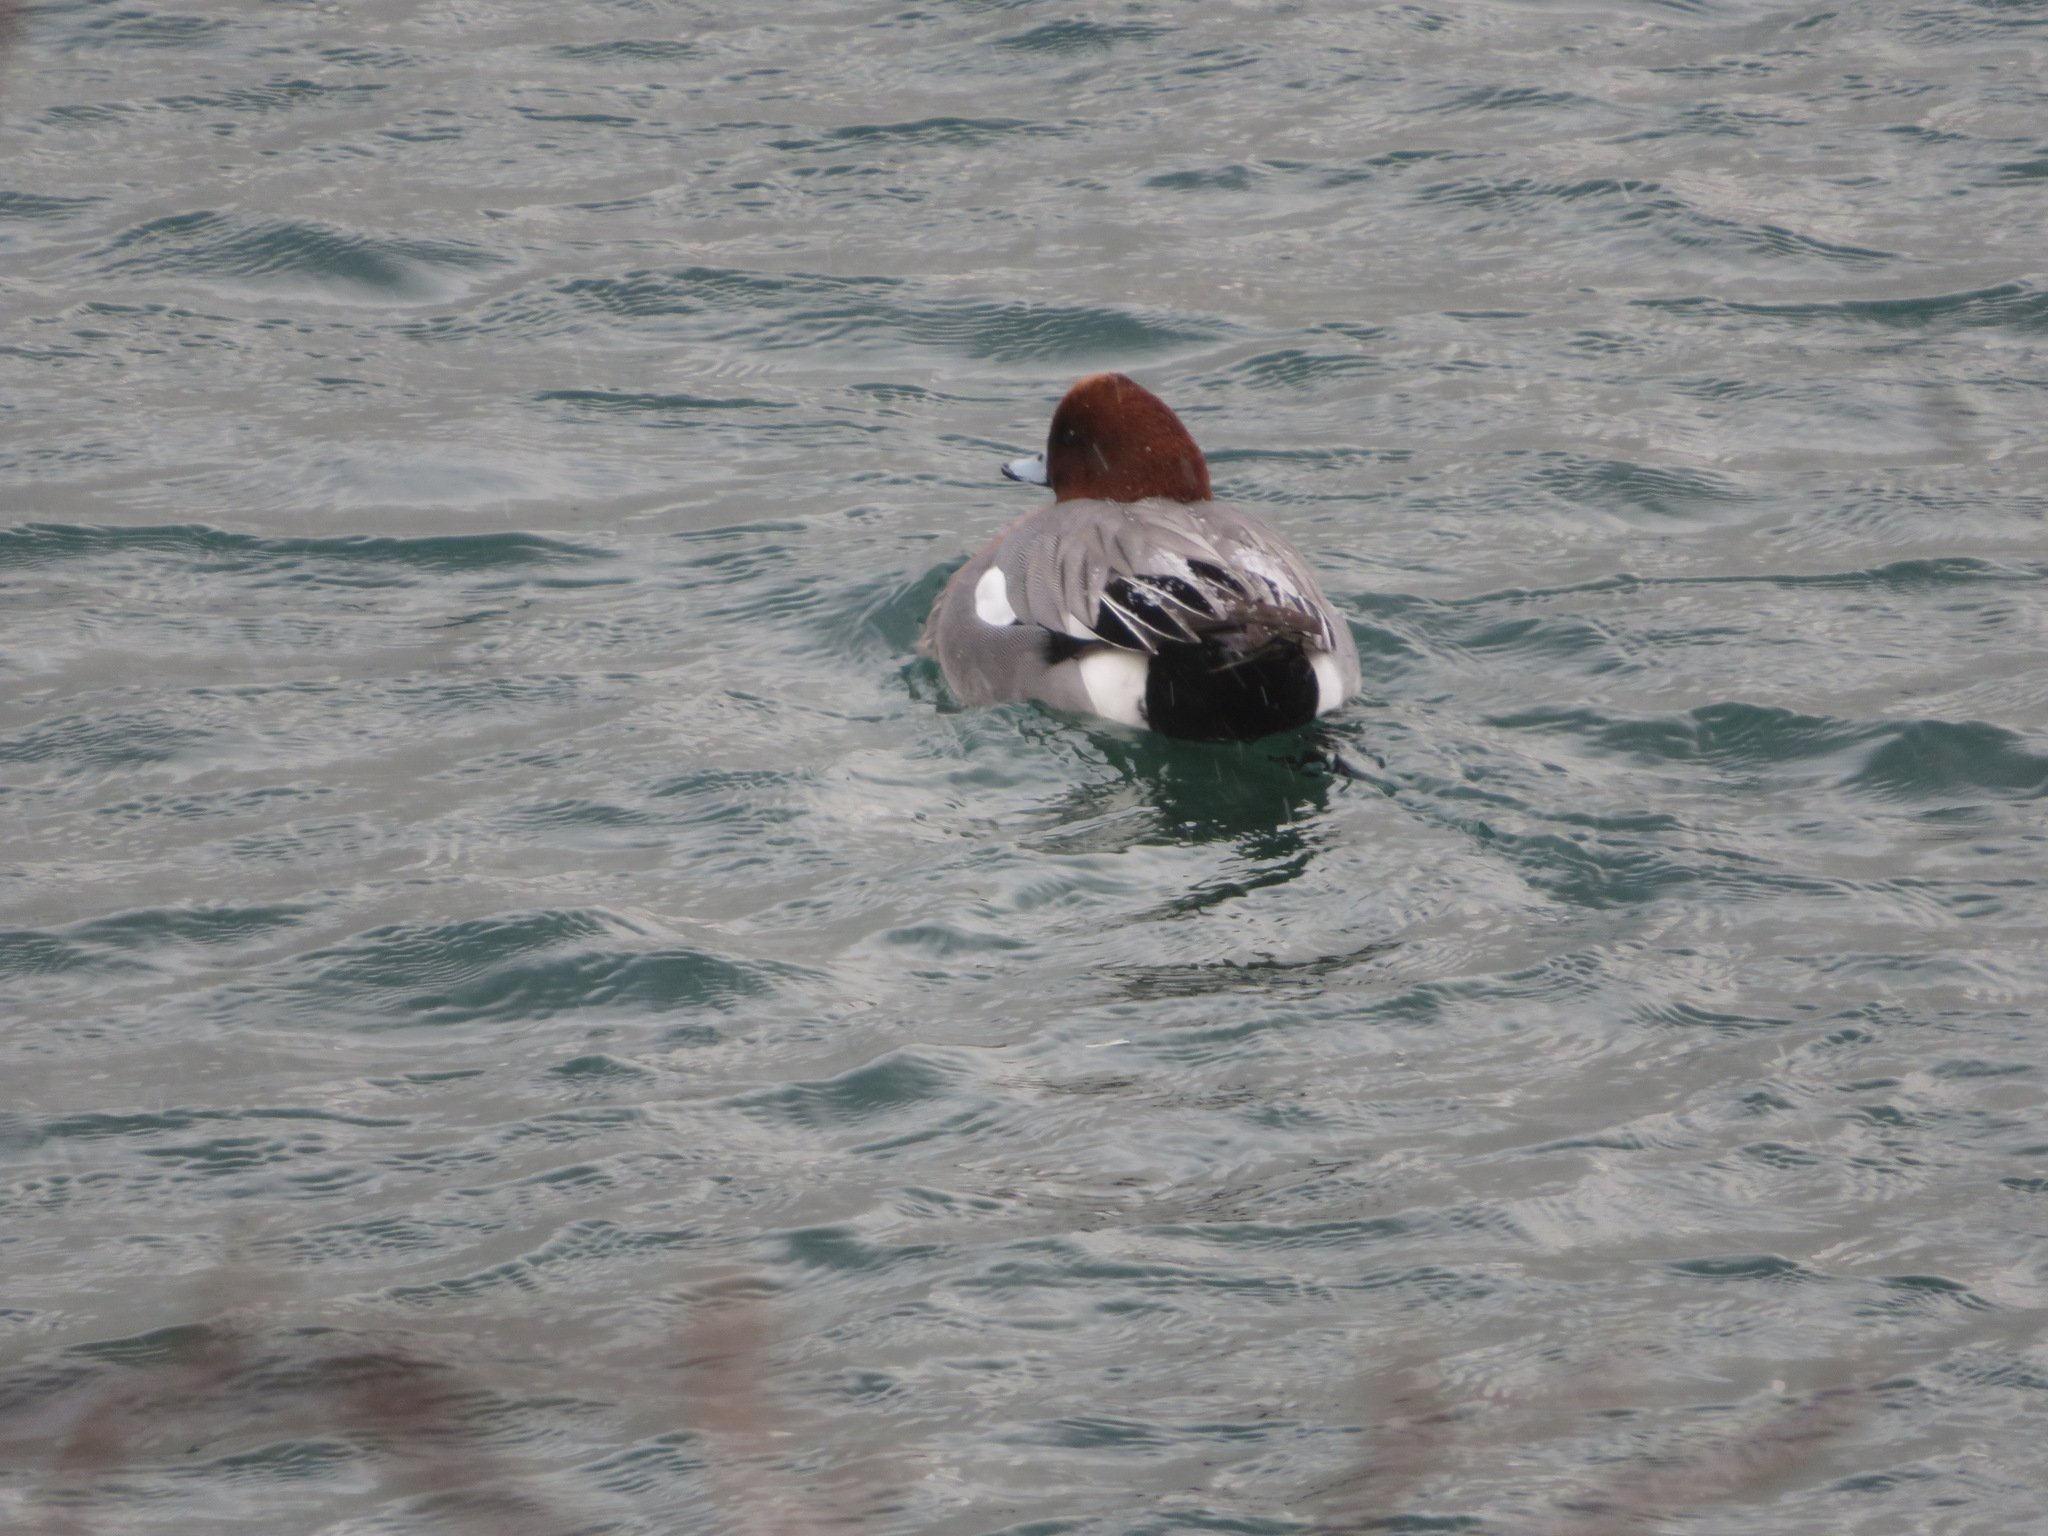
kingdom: Animalia
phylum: Chordata
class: Aves
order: Anseriformes
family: Anatidae
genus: Mareca
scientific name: Mareca penelope
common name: Eurasian wigeon
